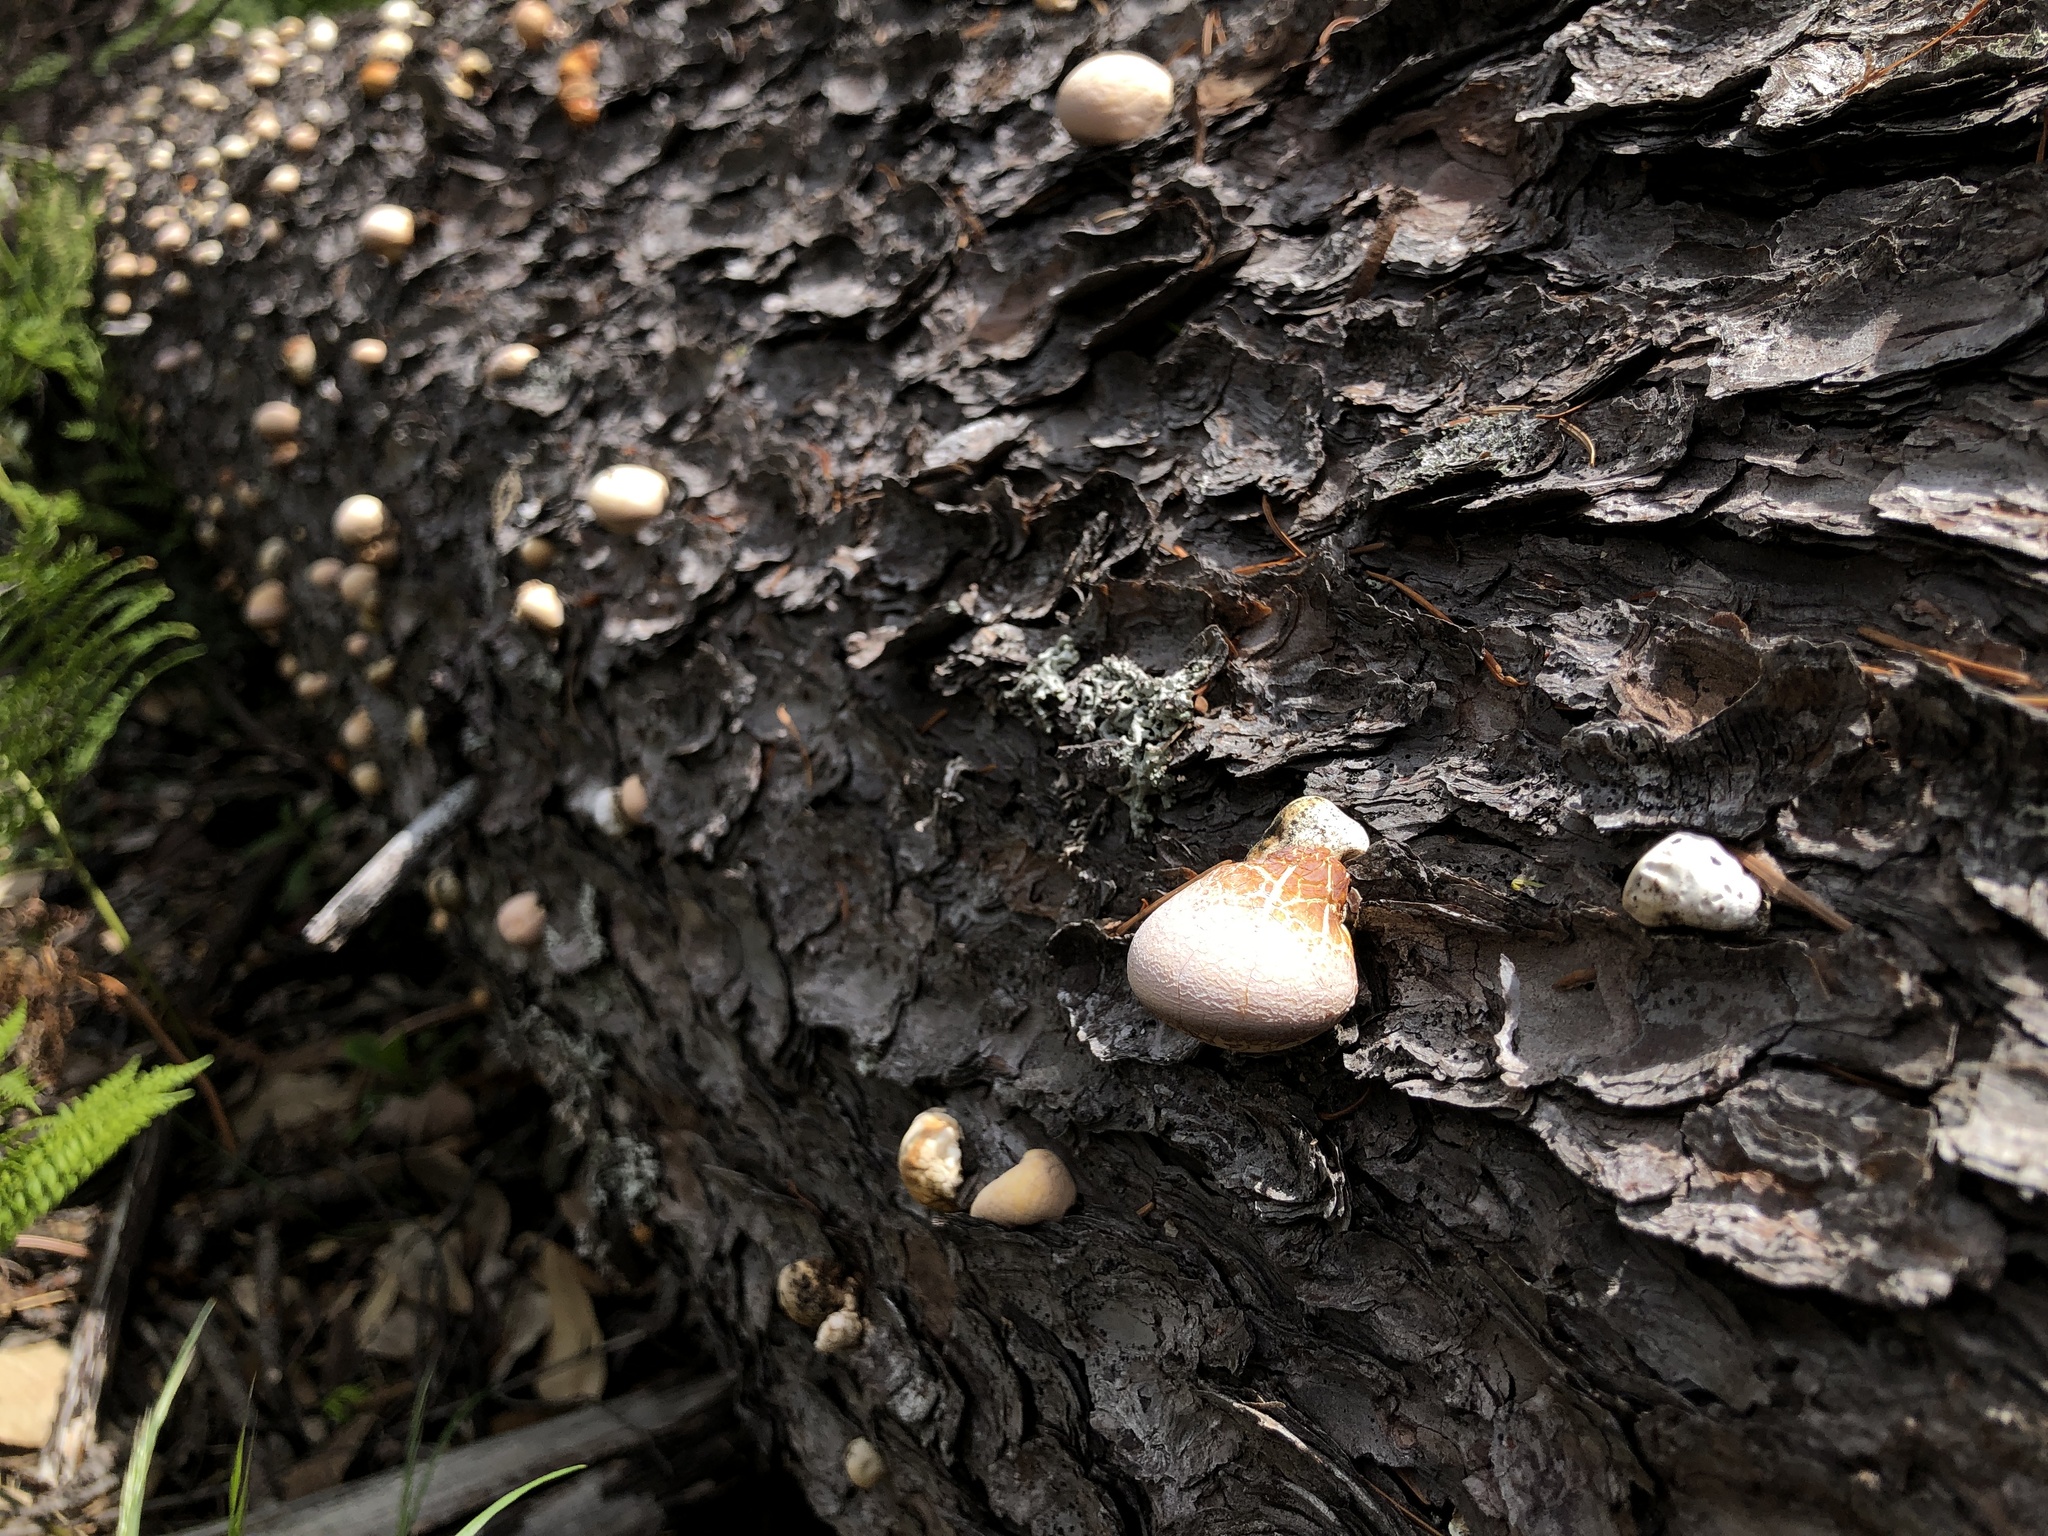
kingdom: Fungi
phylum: Basidiomycota
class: Agaricomycetes
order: Polyporales
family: Polyporaceae
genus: Cryptoporus
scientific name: Cryptoporus volvatus
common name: Veiled polypore
